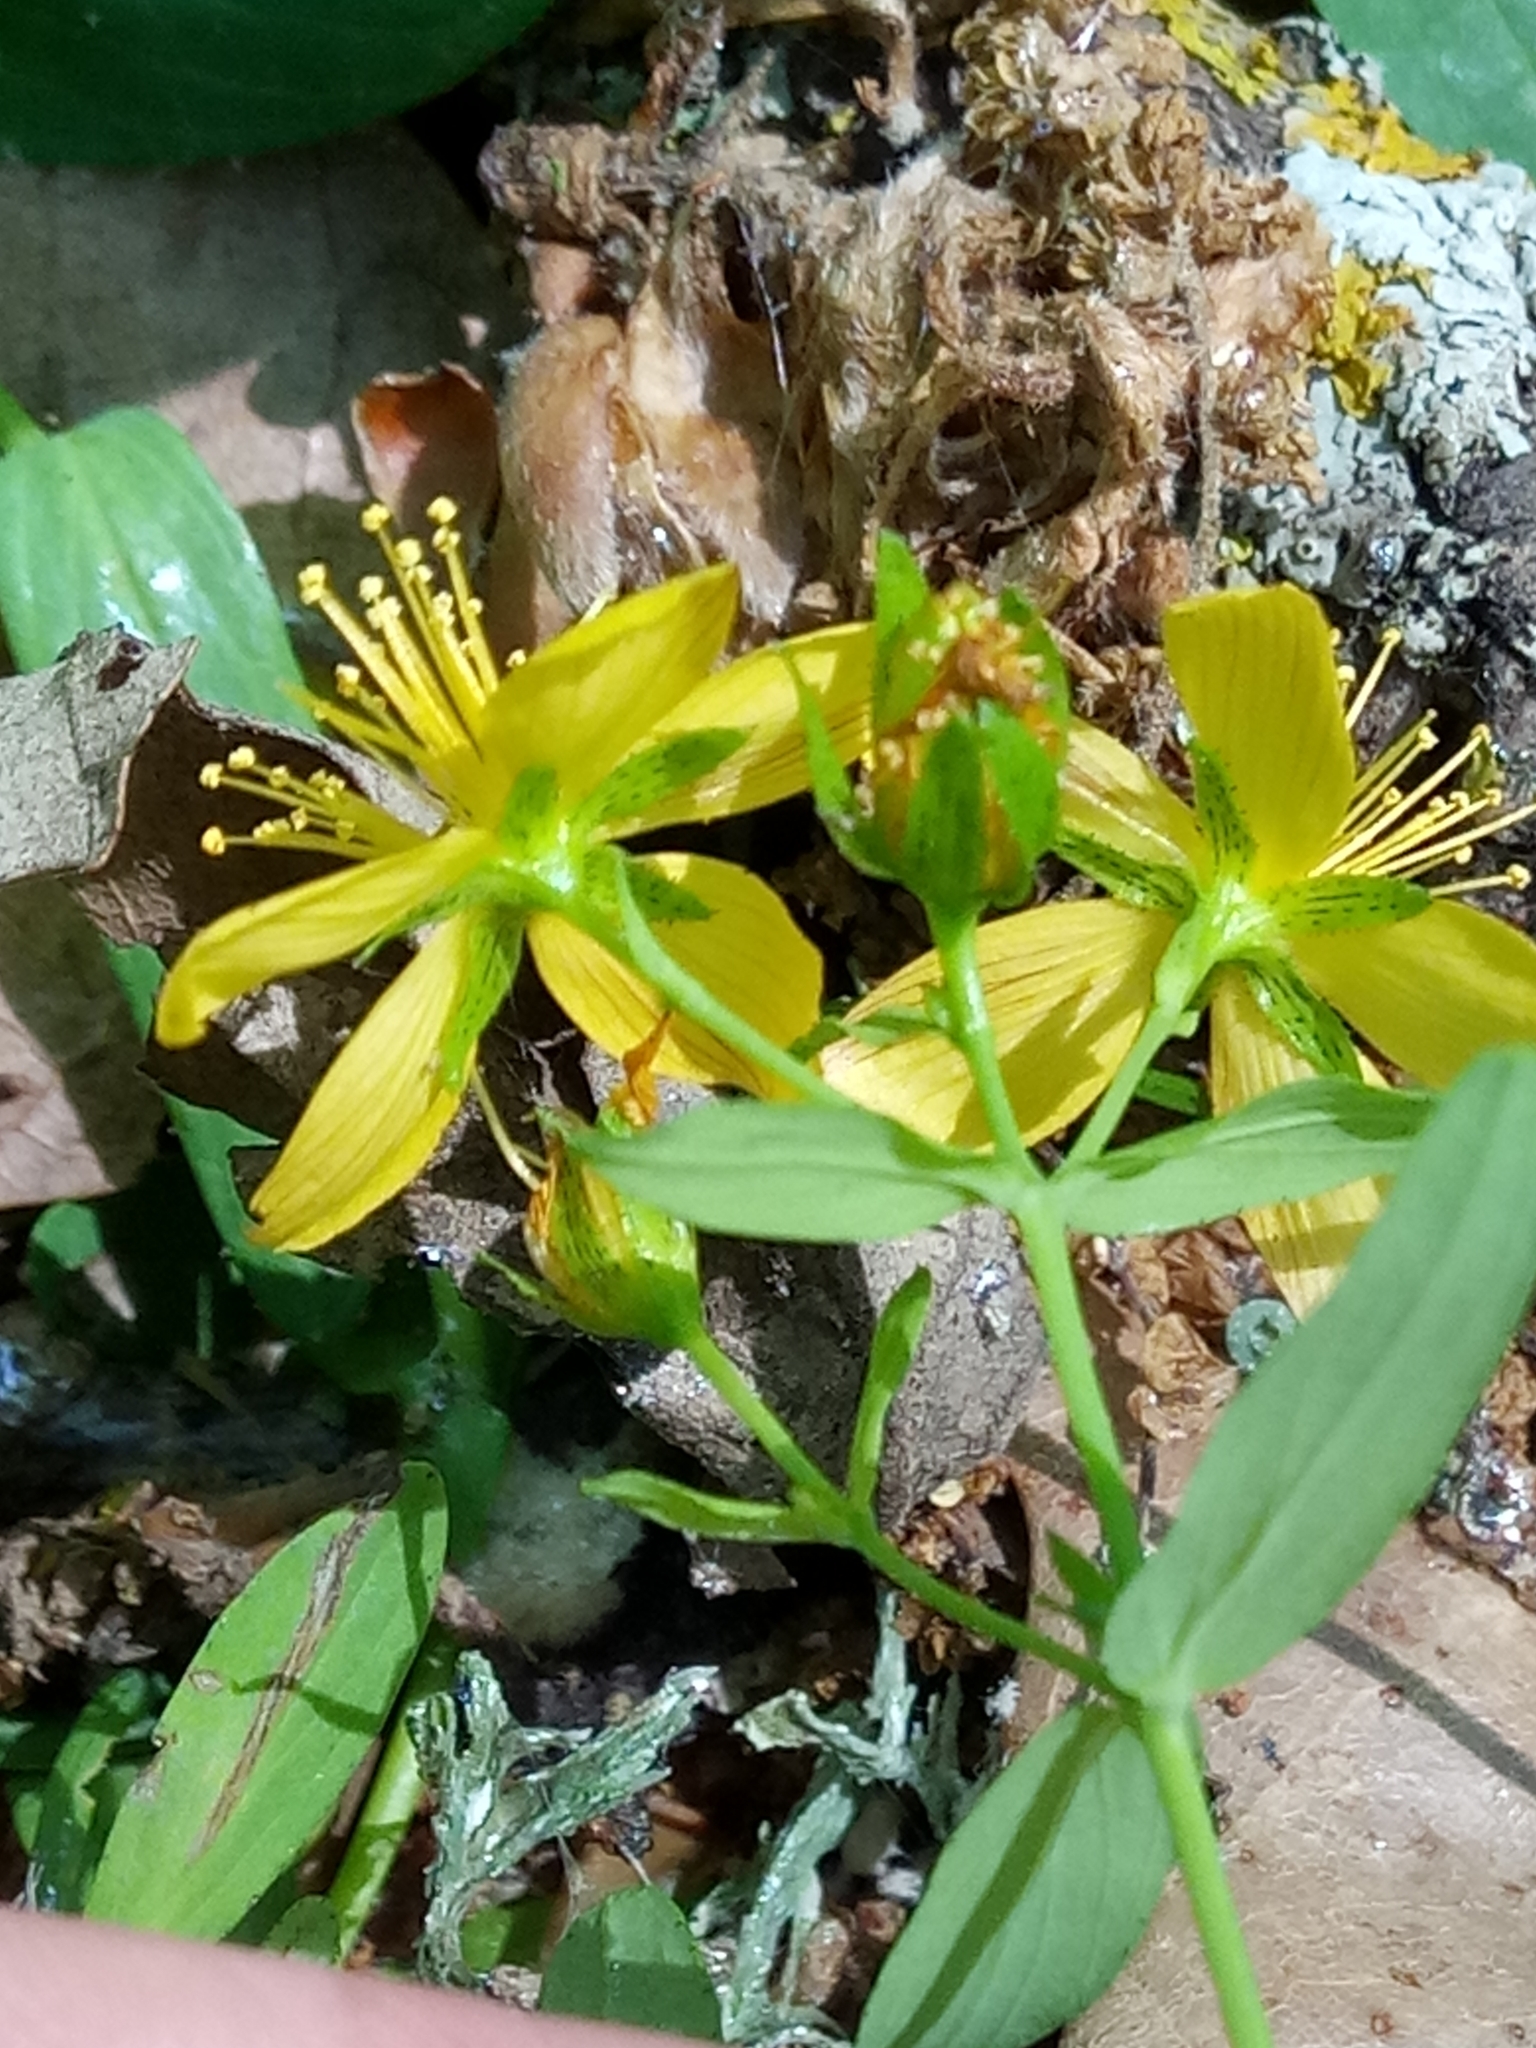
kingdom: Plantae
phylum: Tracheophyta
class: Magnoliopsida
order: Malpighiales
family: Hypericaceae
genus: Hypericum
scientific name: Hypericum australe
